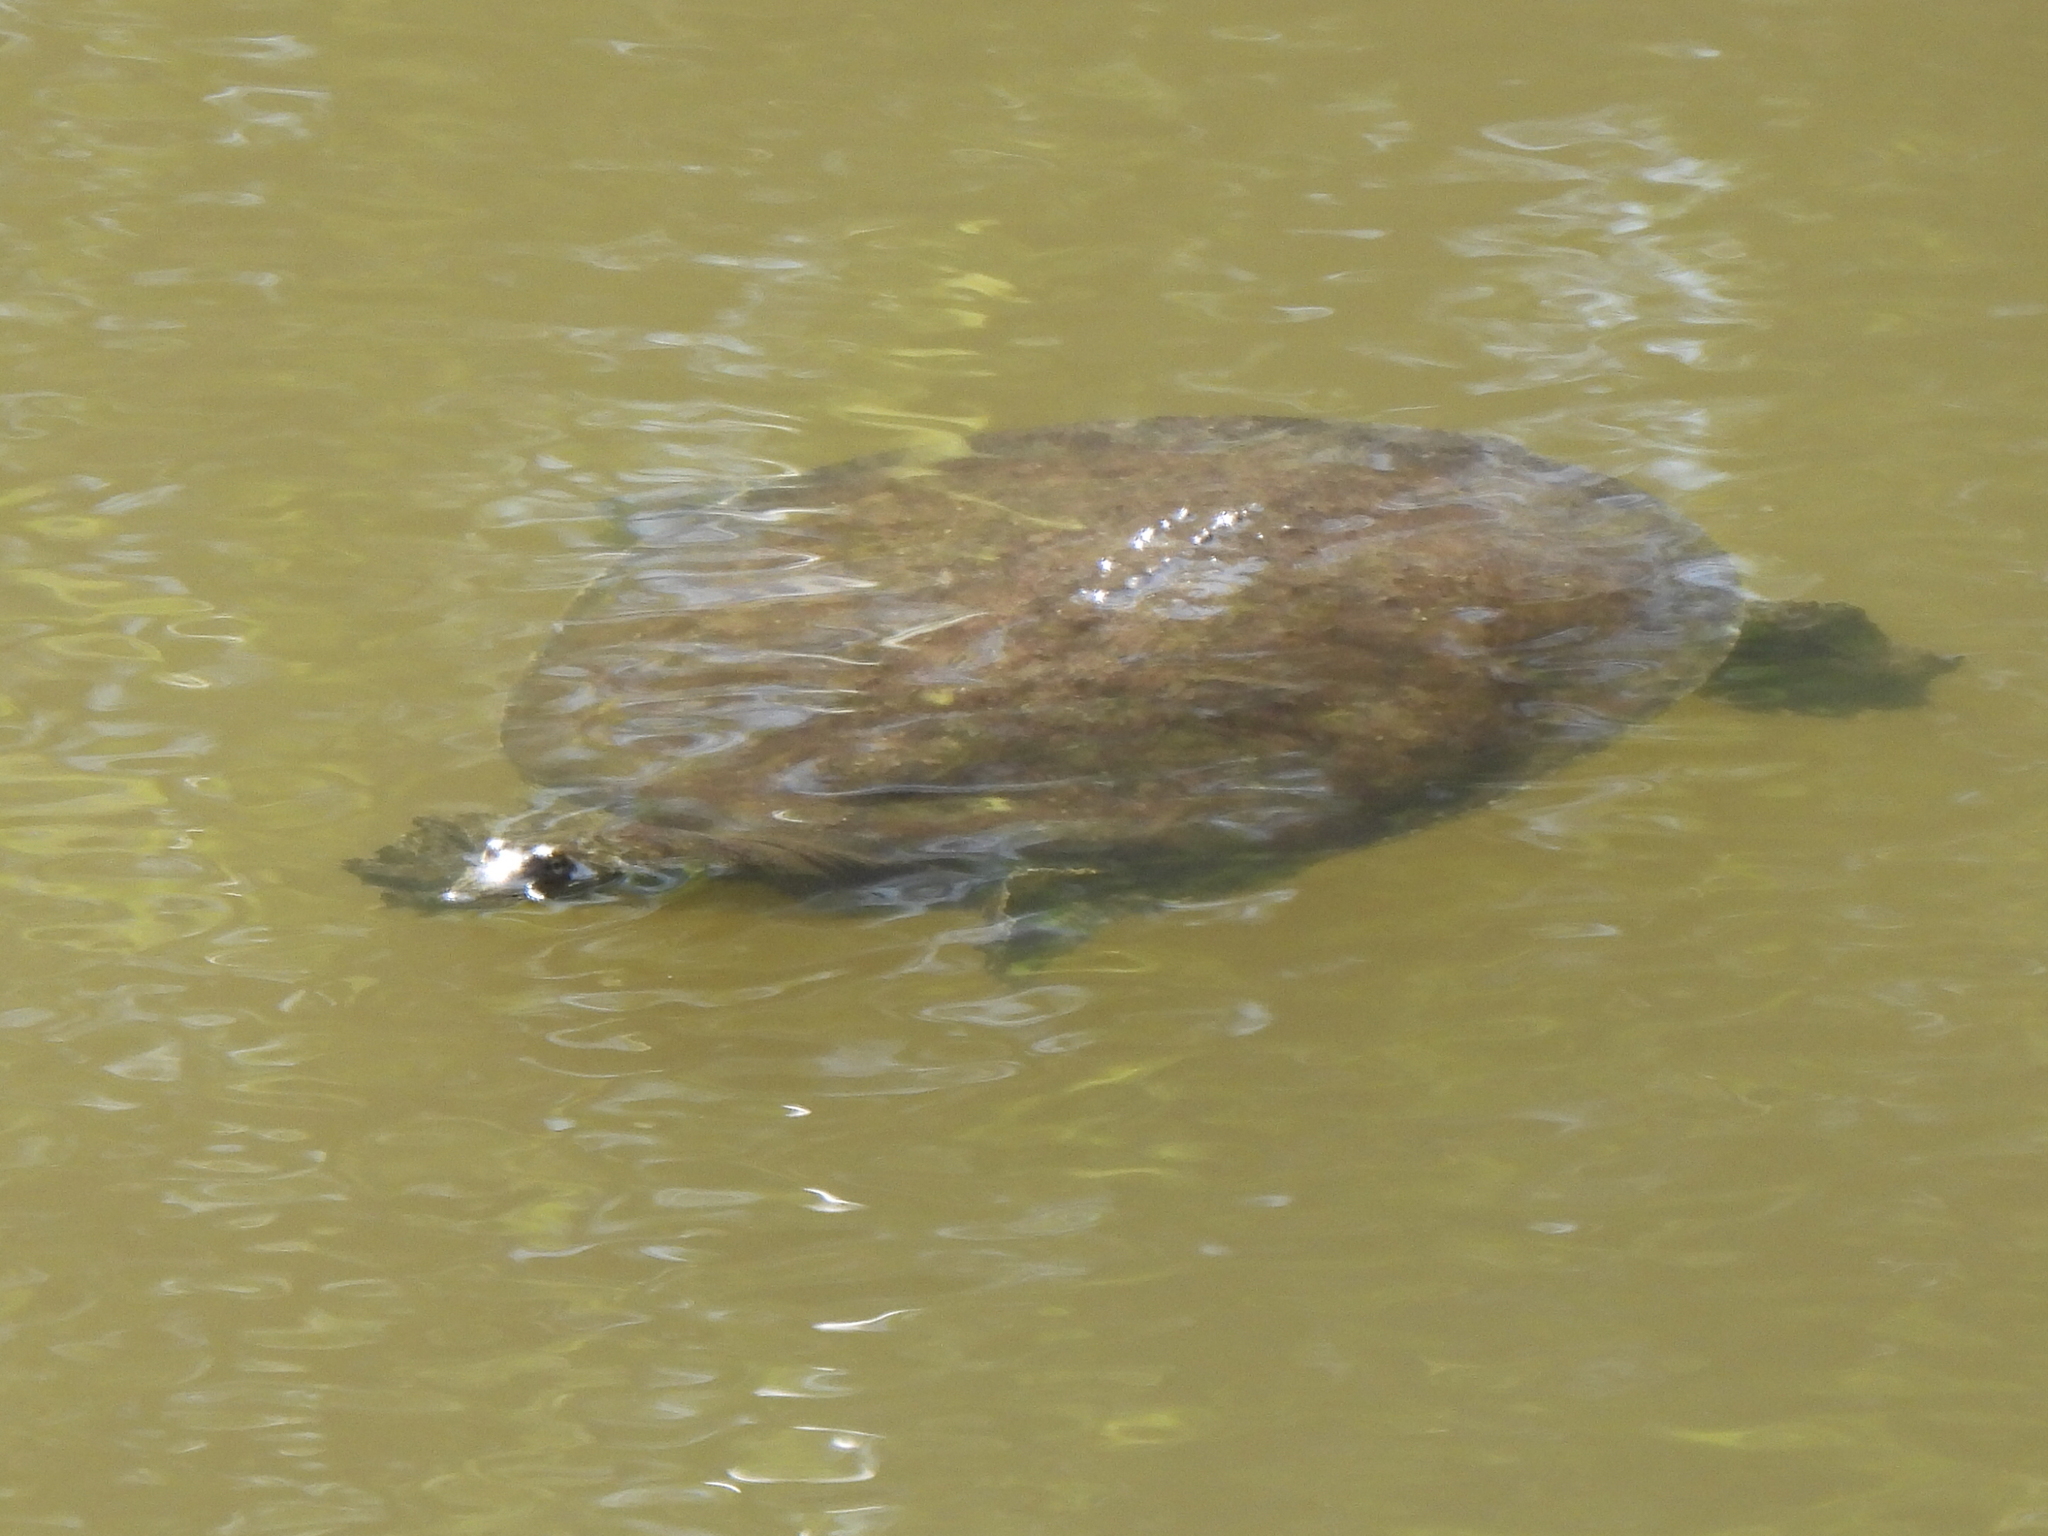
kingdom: Animalia
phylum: Chordata
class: Testudines
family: Trionychidae
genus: Apalone
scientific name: Apalone spinifera
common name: Spiny softshell turtle
